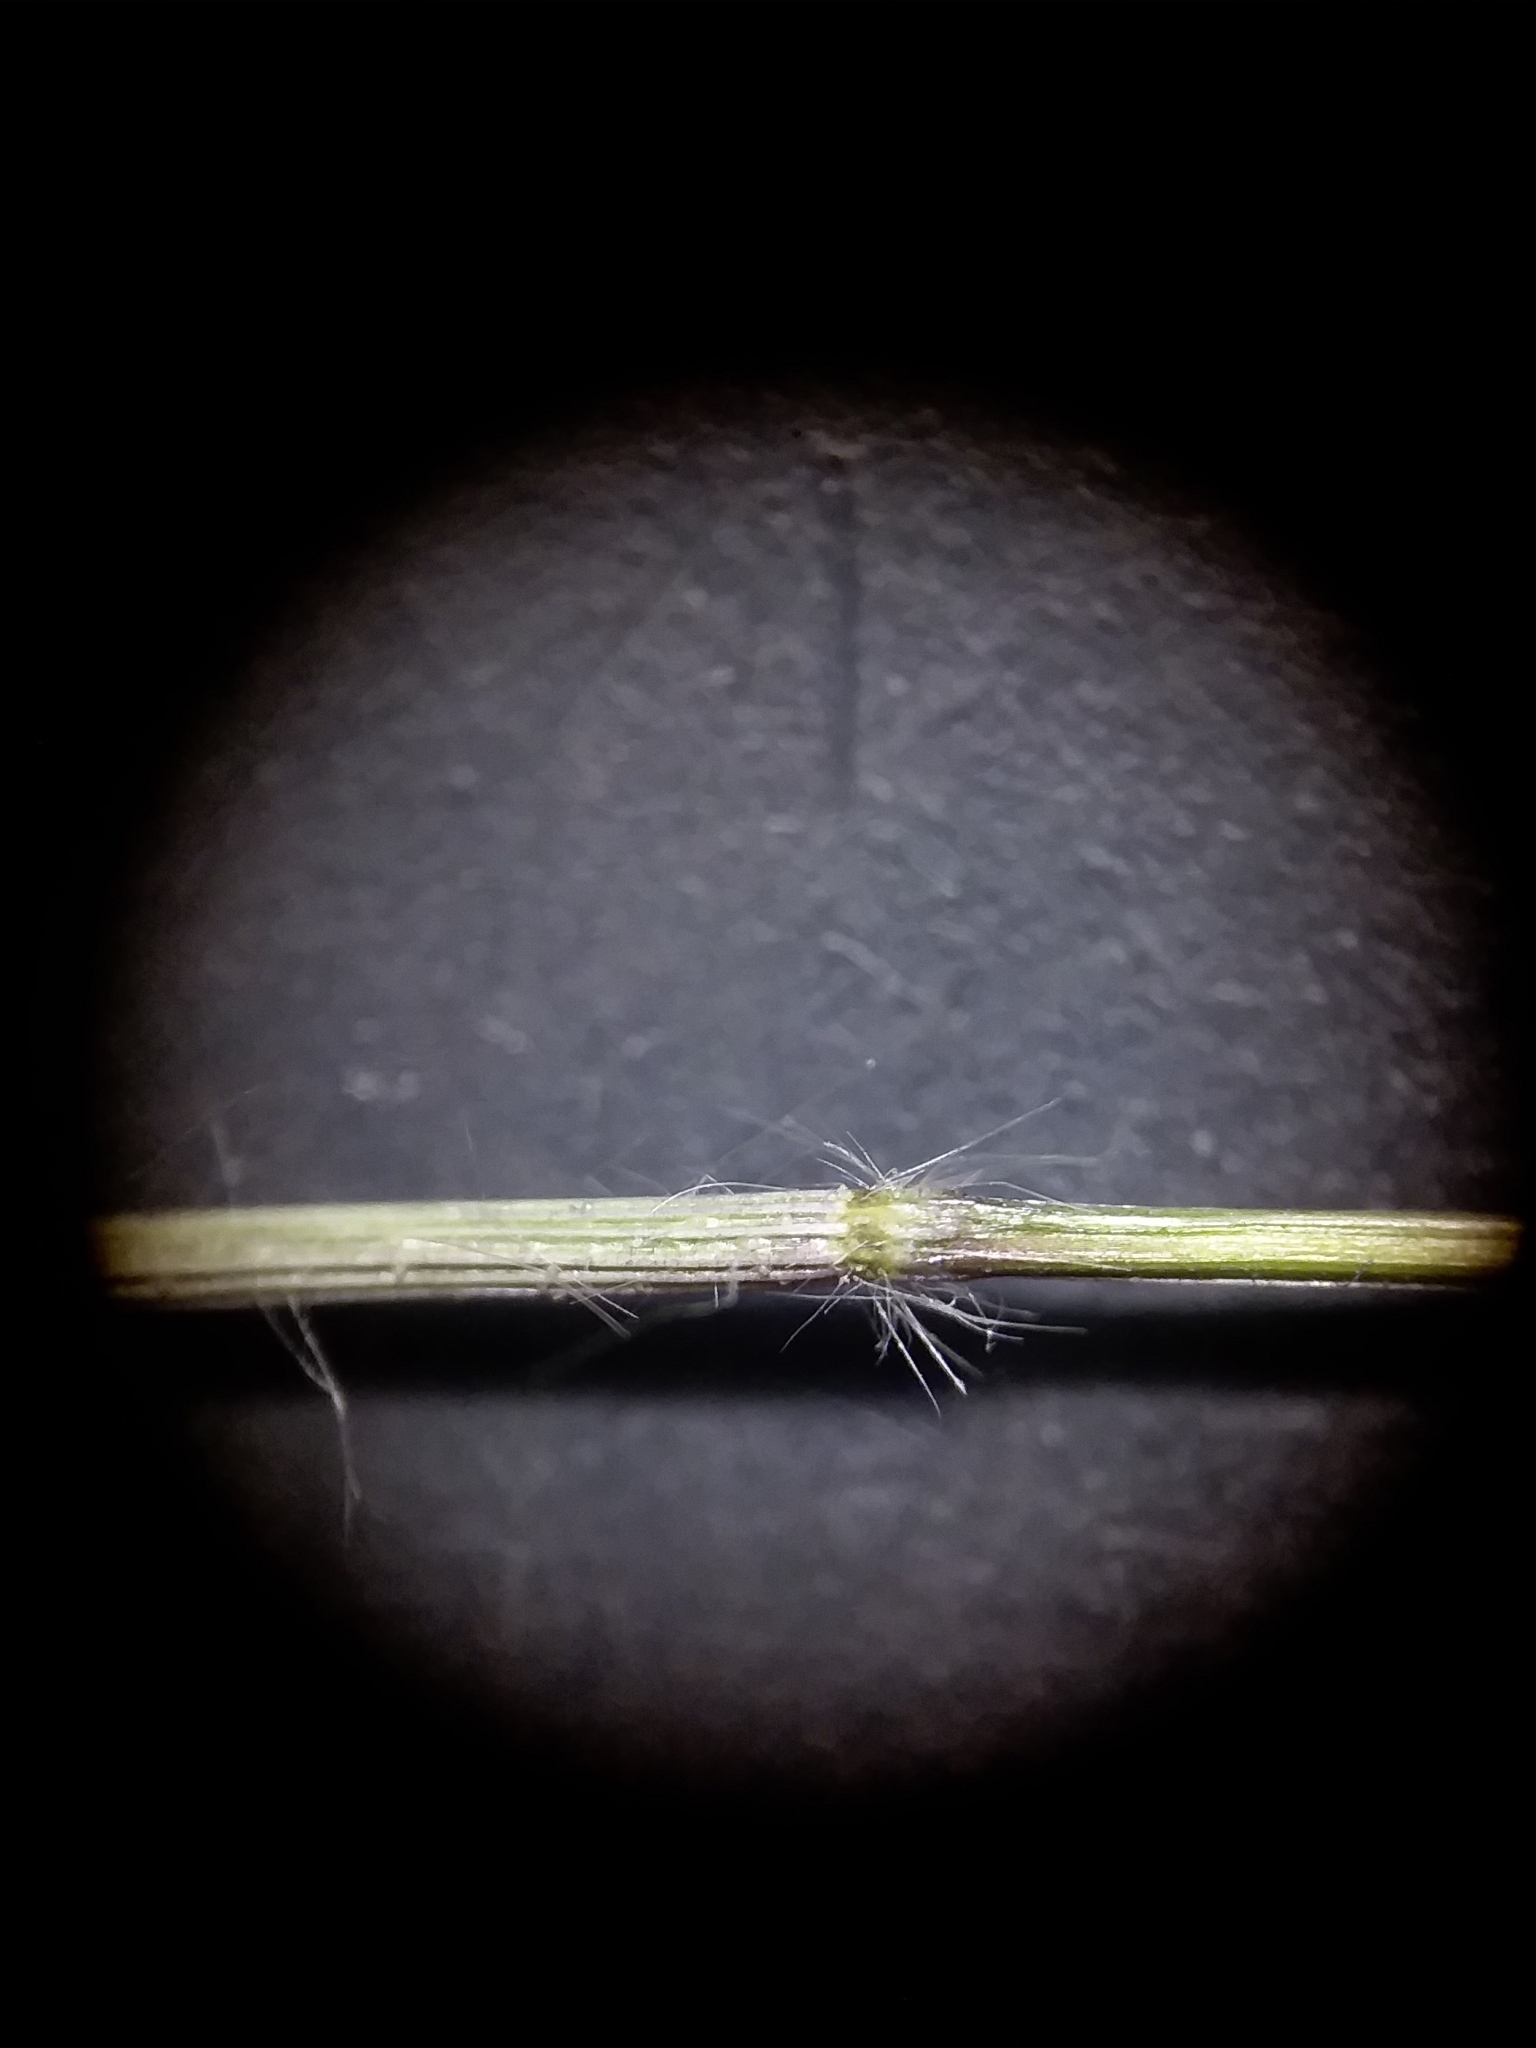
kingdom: Plantae
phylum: Tracheophyta
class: Liliopsida
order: Poales
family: Poaceae
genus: Dichanthelium
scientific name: Dichanthelium curtifolium
